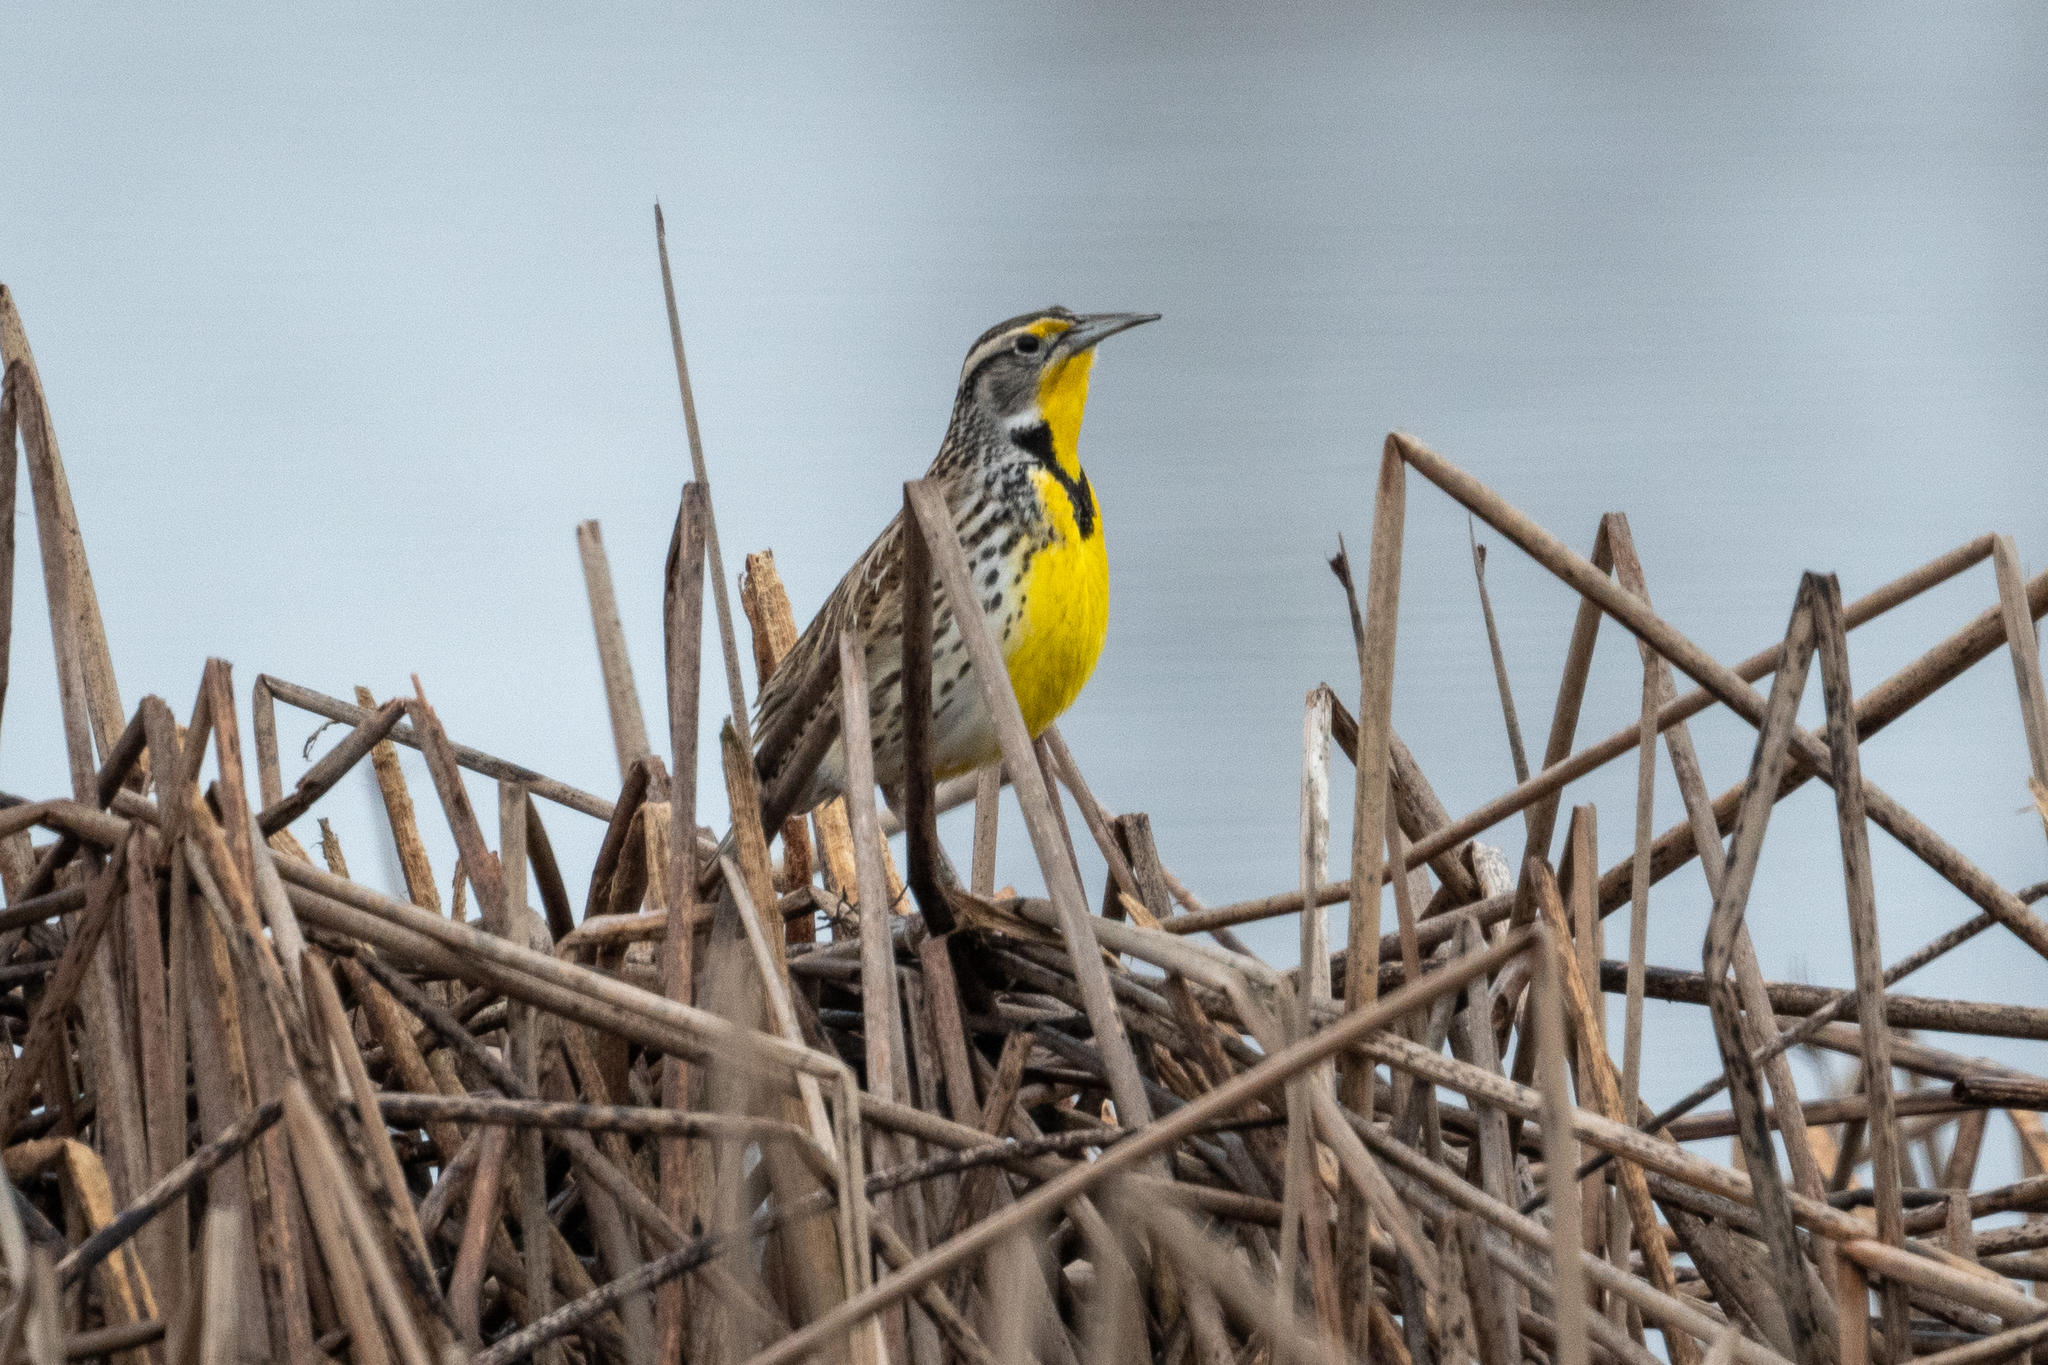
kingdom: Animalia
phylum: Chordata
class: Aves
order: Passeriformes
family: Icteridae
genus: Sturnella
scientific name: Sturnella neglecta
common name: Western meadowlark
